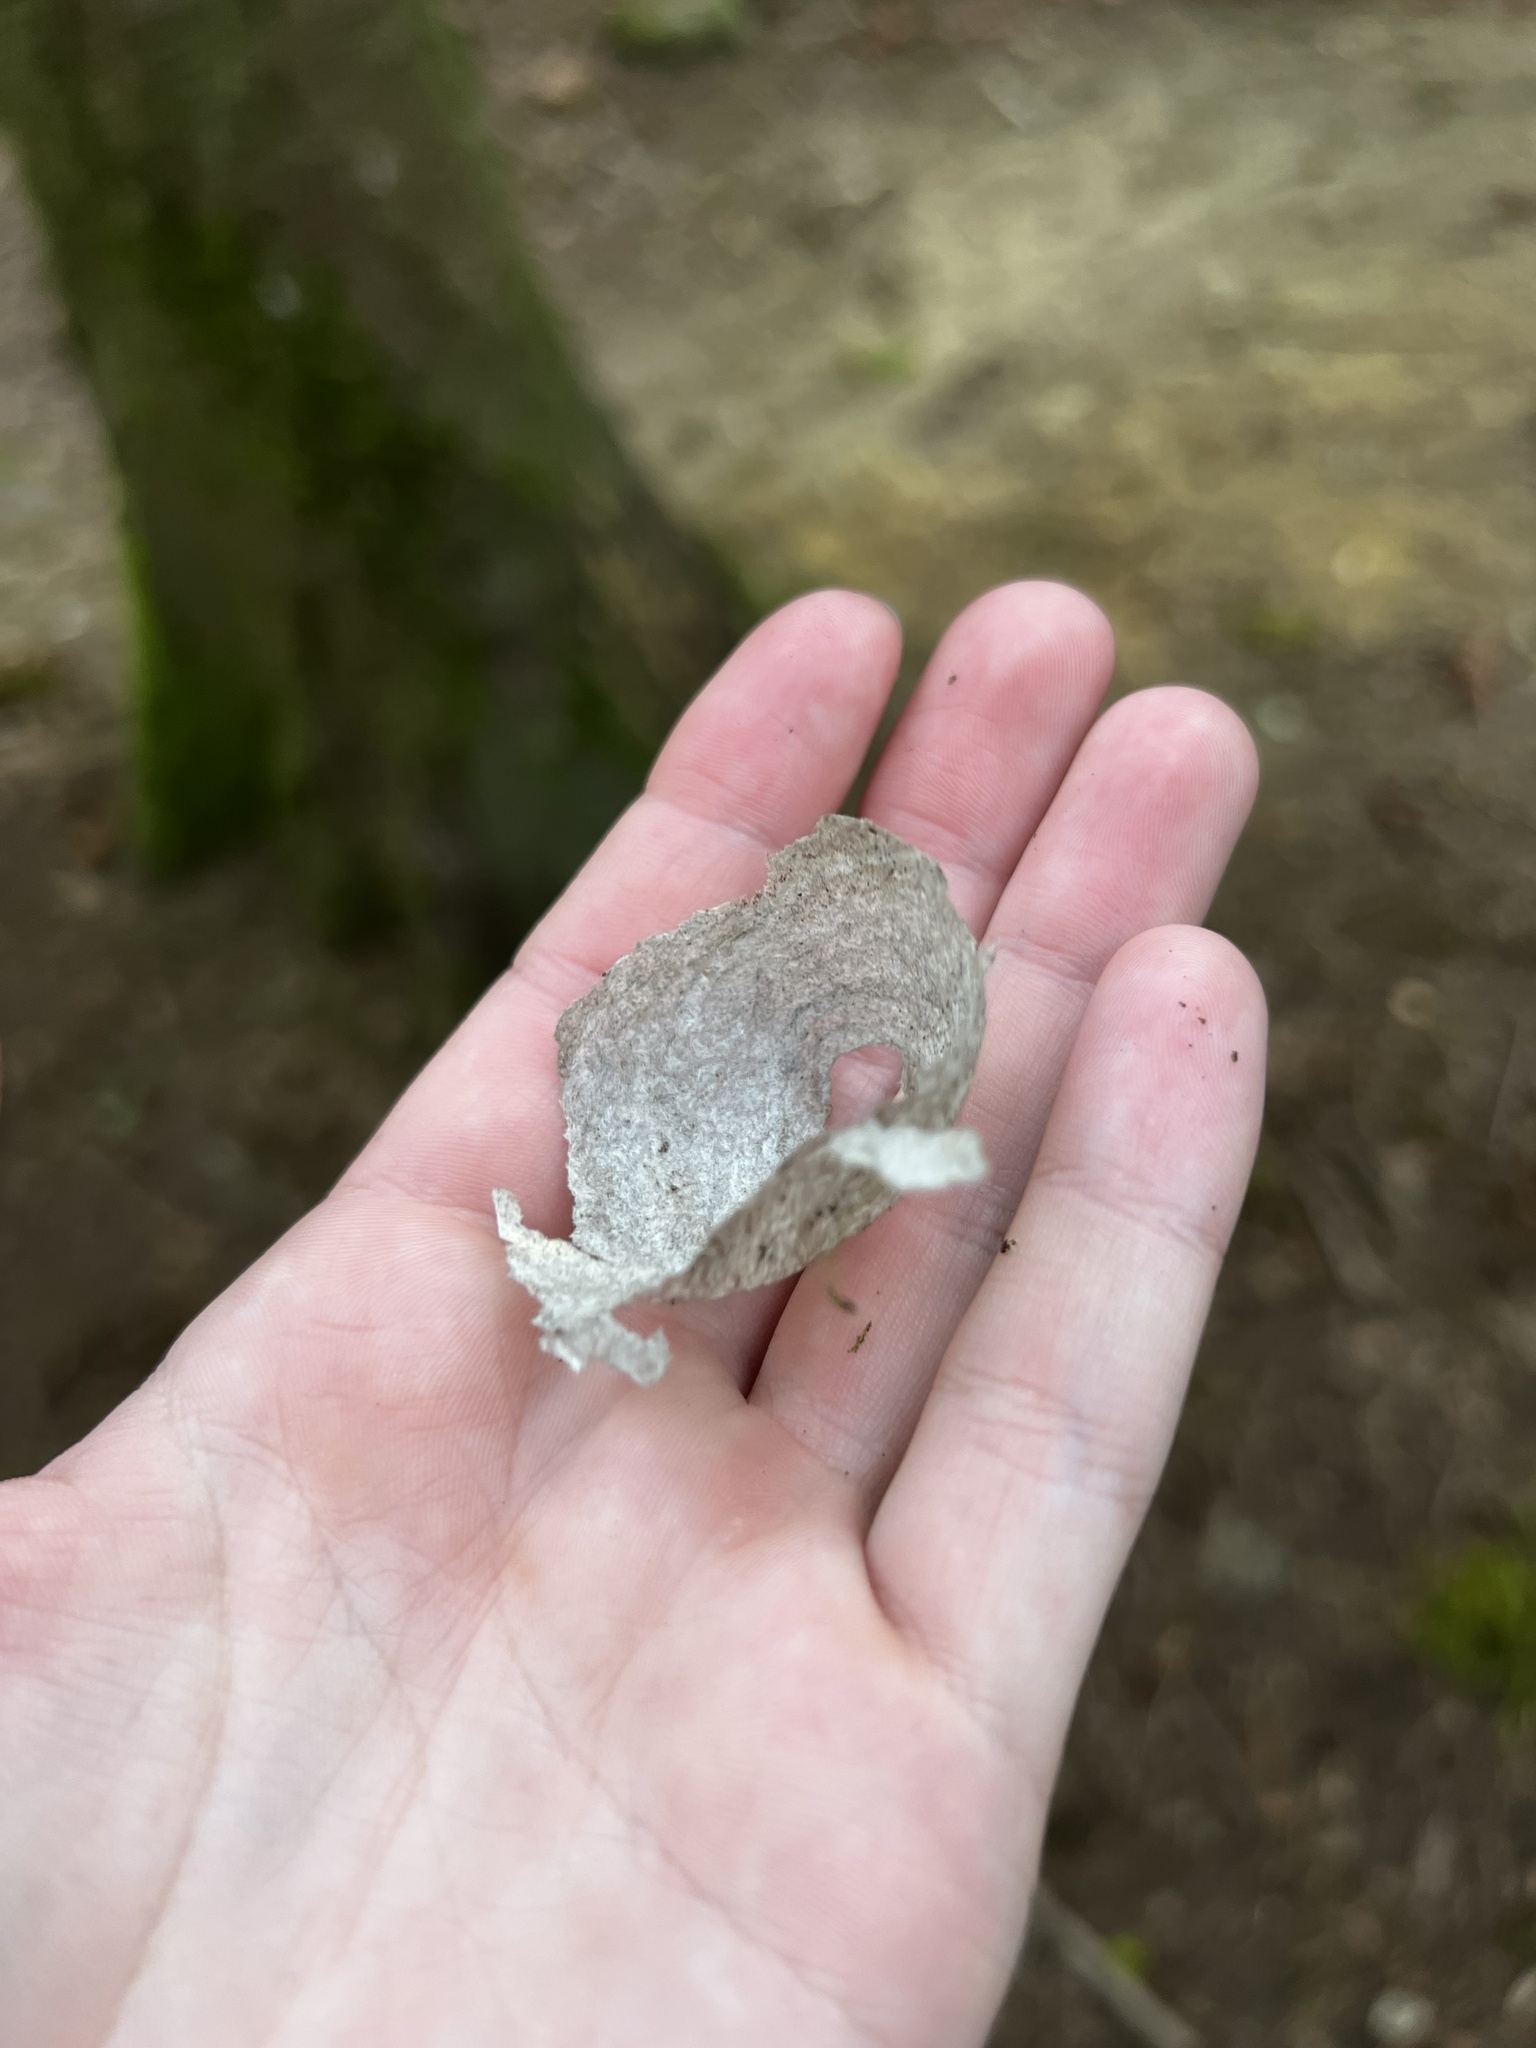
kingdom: Animalia
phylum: Arthropoda
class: Insecta
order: Hymenoptera
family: Vespidae
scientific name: Vespidae
